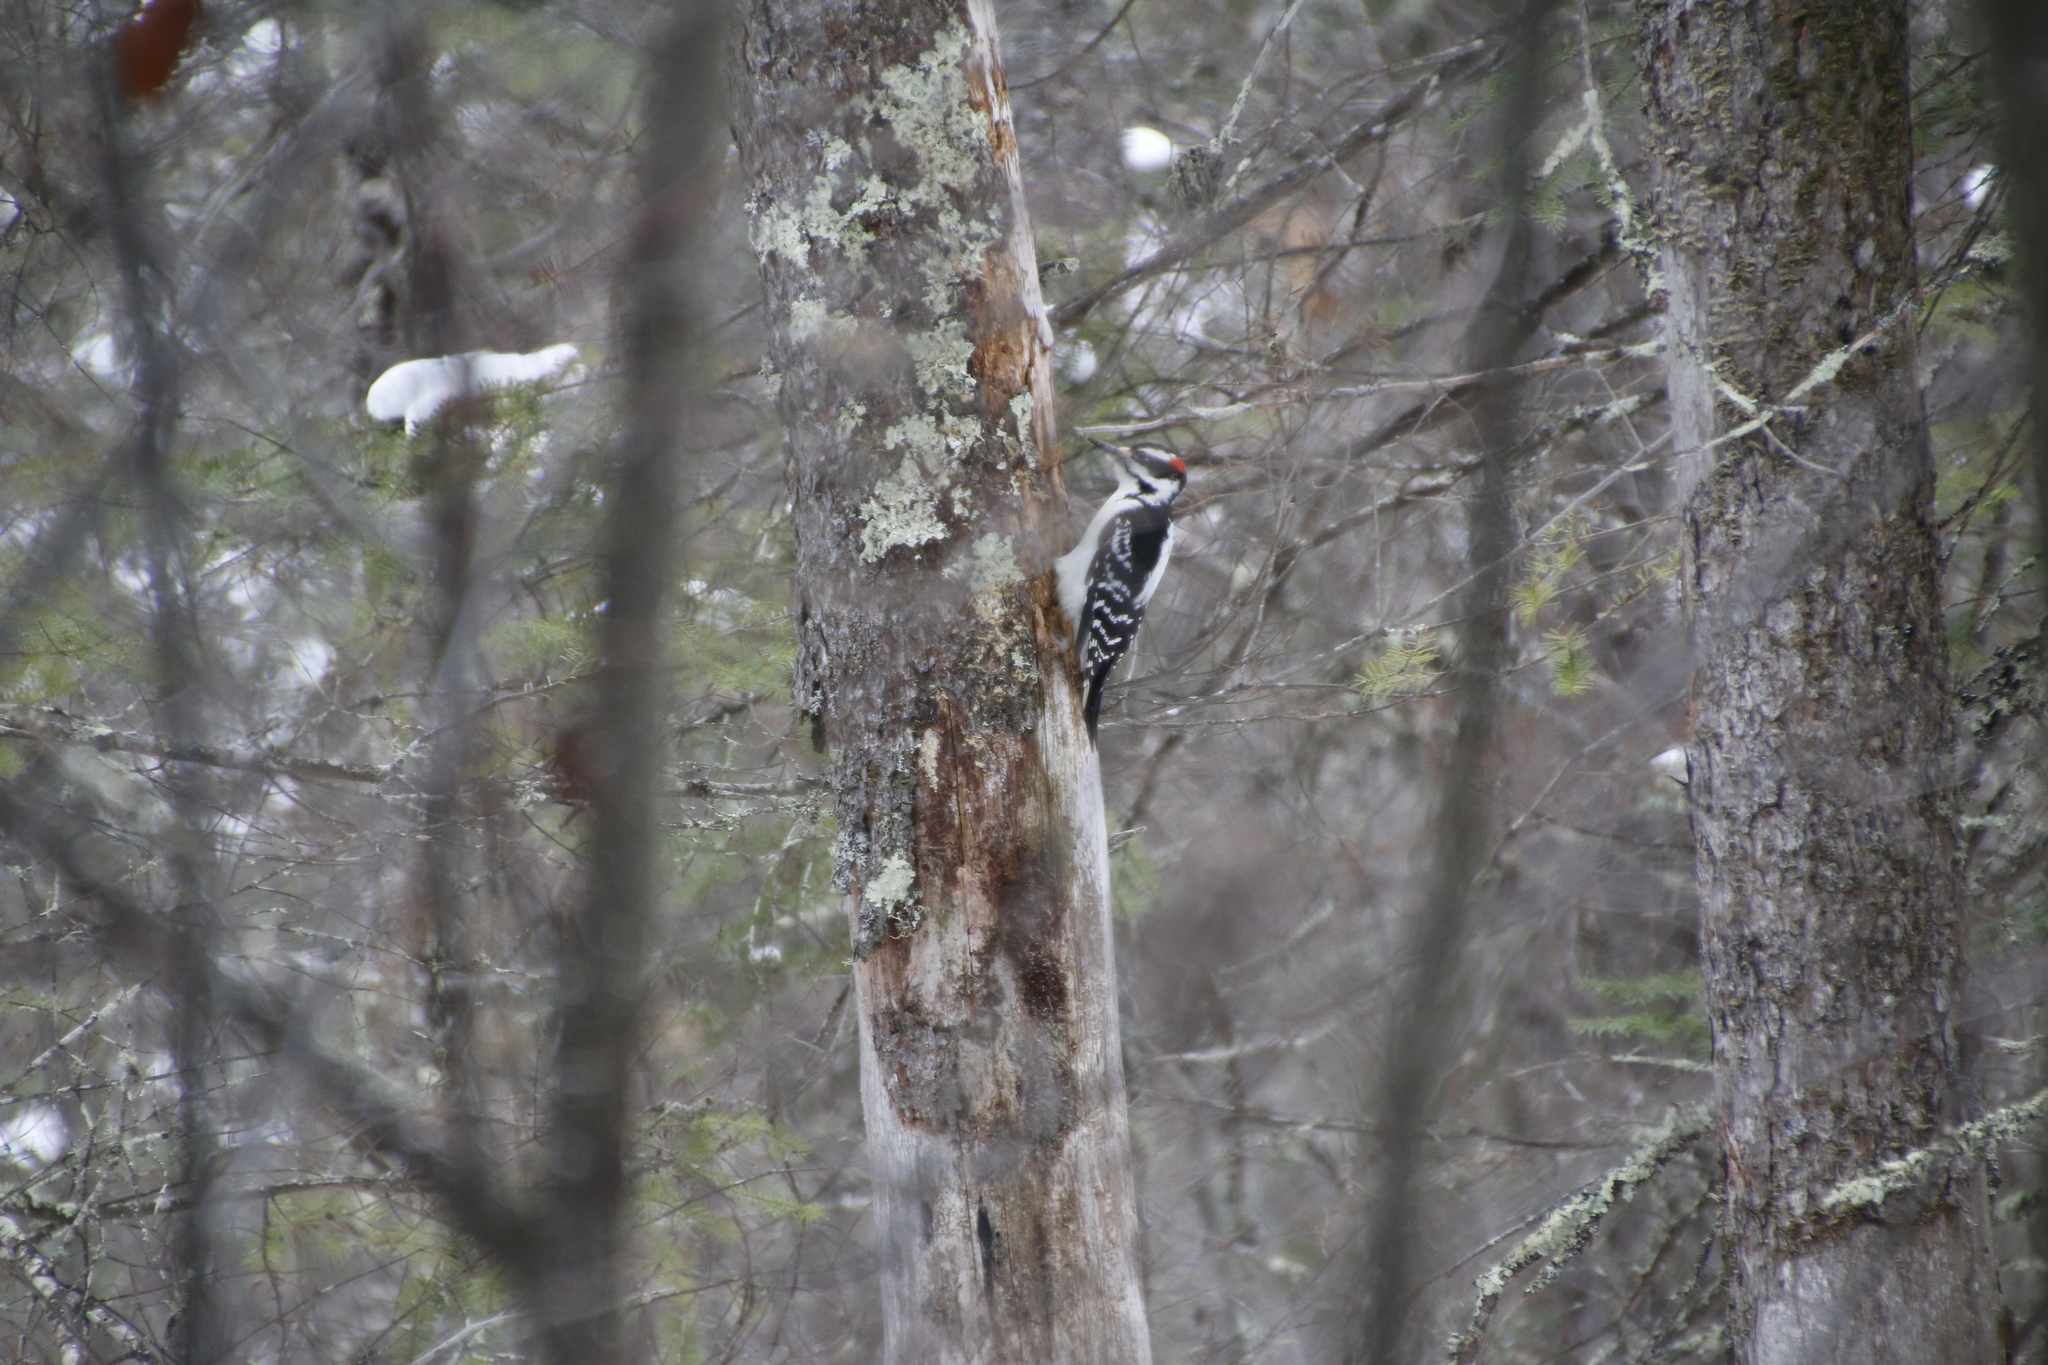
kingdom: Animalia
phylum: Chordata
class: Aves
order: Piciformes
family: Picidae
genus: Leuconotopicus
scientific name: Leuconotopicus villosus
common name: Hairy woodpecker
